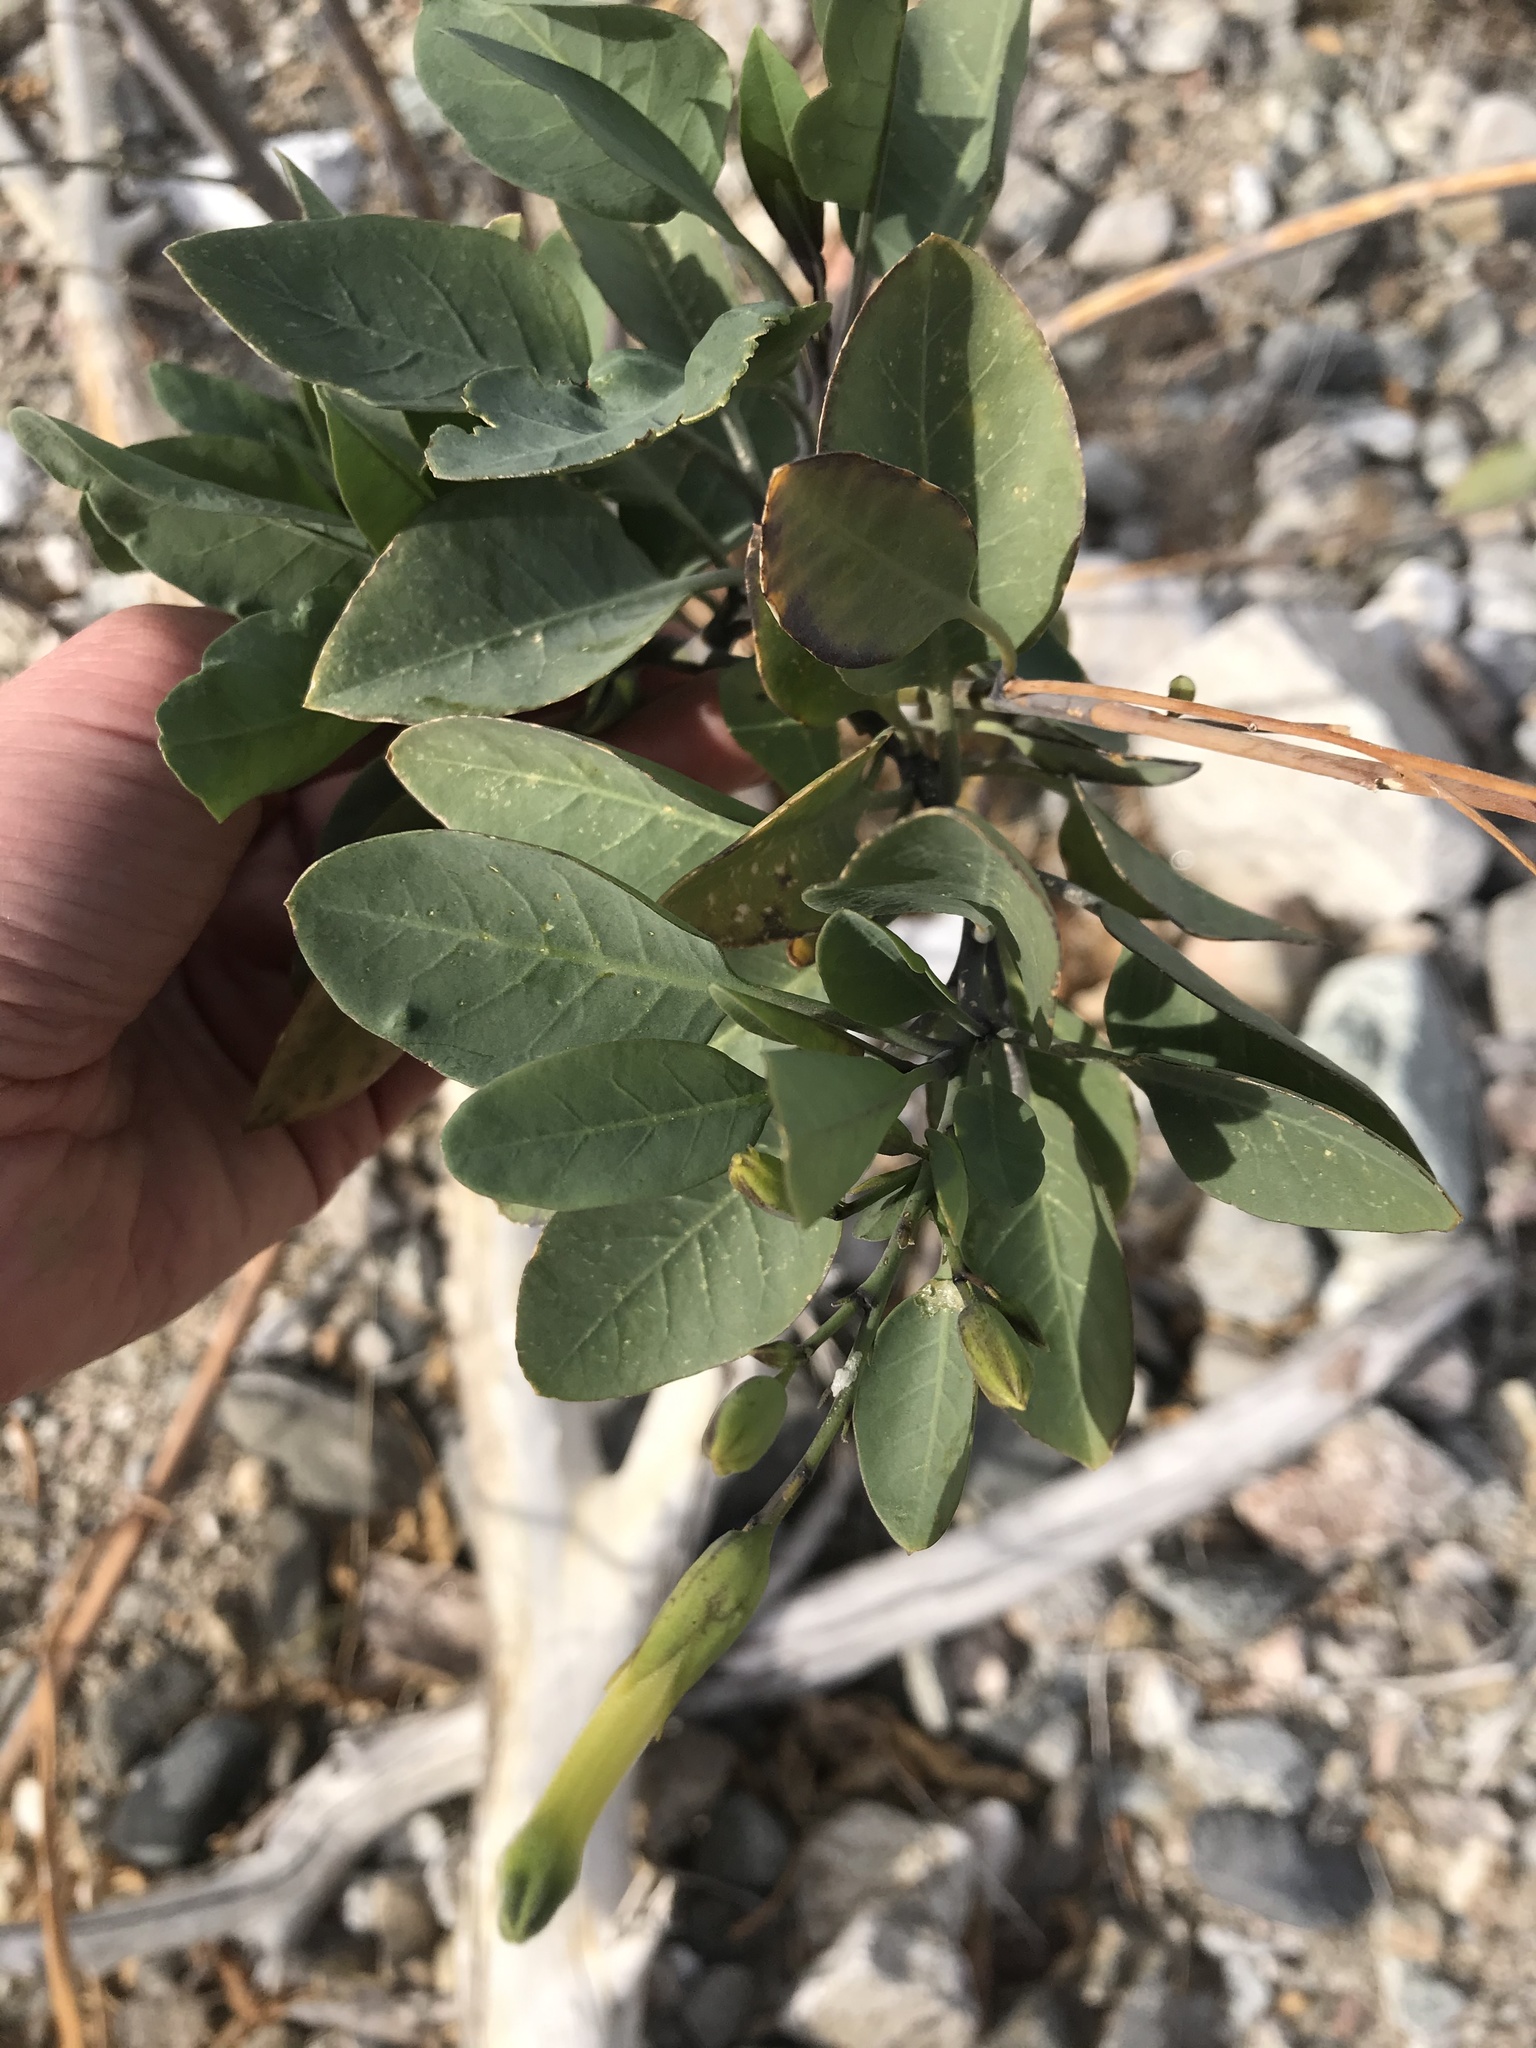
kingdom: Plantae
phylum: Tracheophyta
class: Magnoliopsida
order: Solanales
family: Solanaceae
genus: Nicotiana
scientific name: Nicotiana glauca
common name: Tree tobacco
